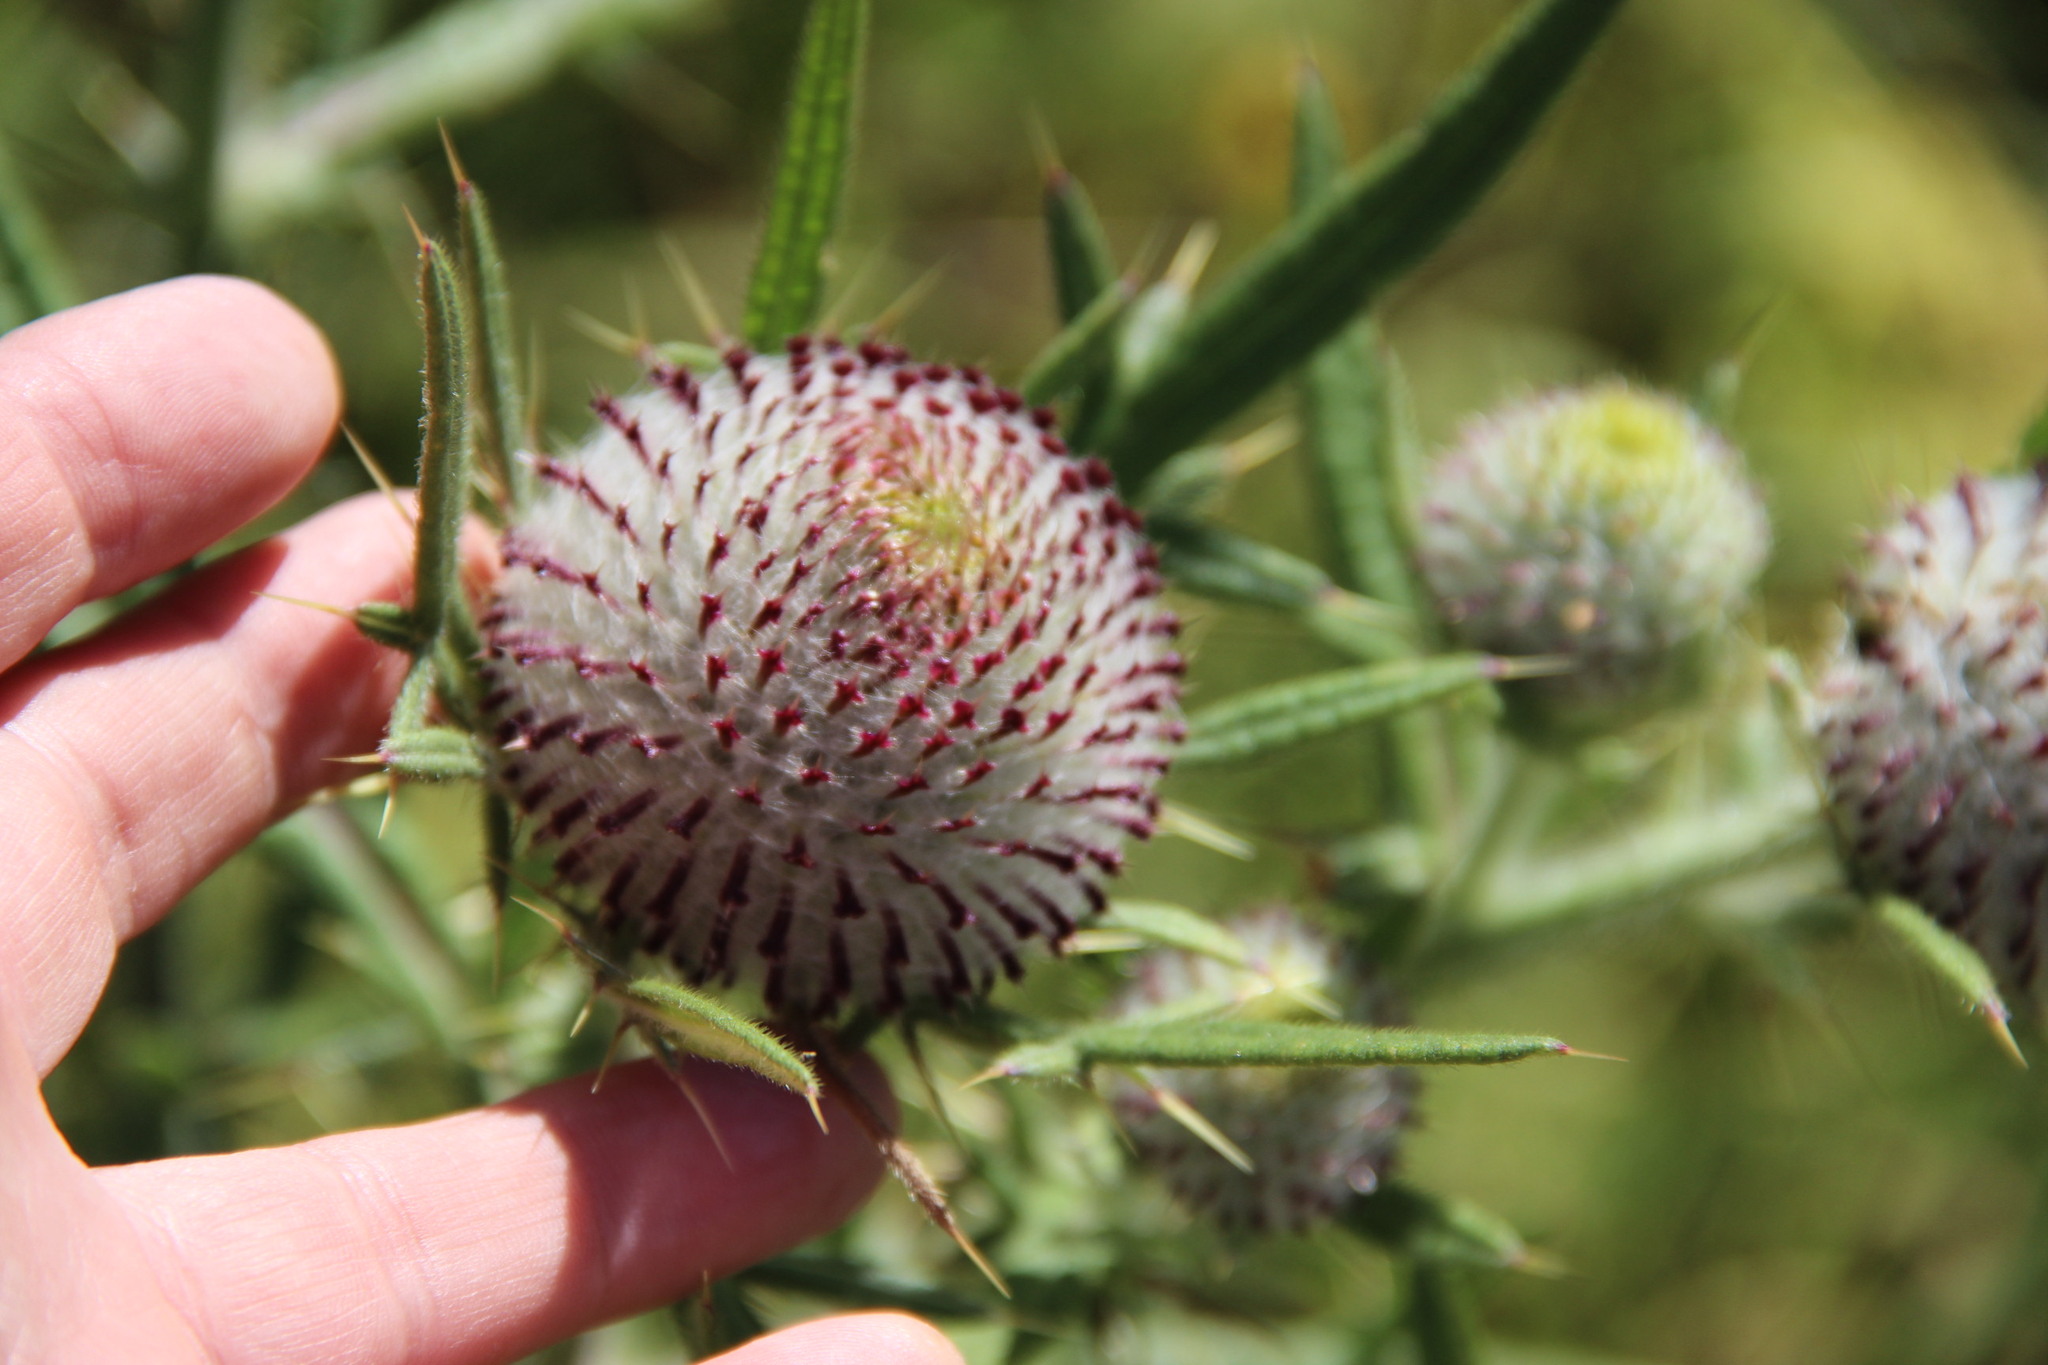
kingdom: Plantae
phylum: Tracheophyta
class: Magnoliopsida
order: Asterales
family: Asteraceae
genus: Lophiolepis
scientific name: Lophiolepis decussata
